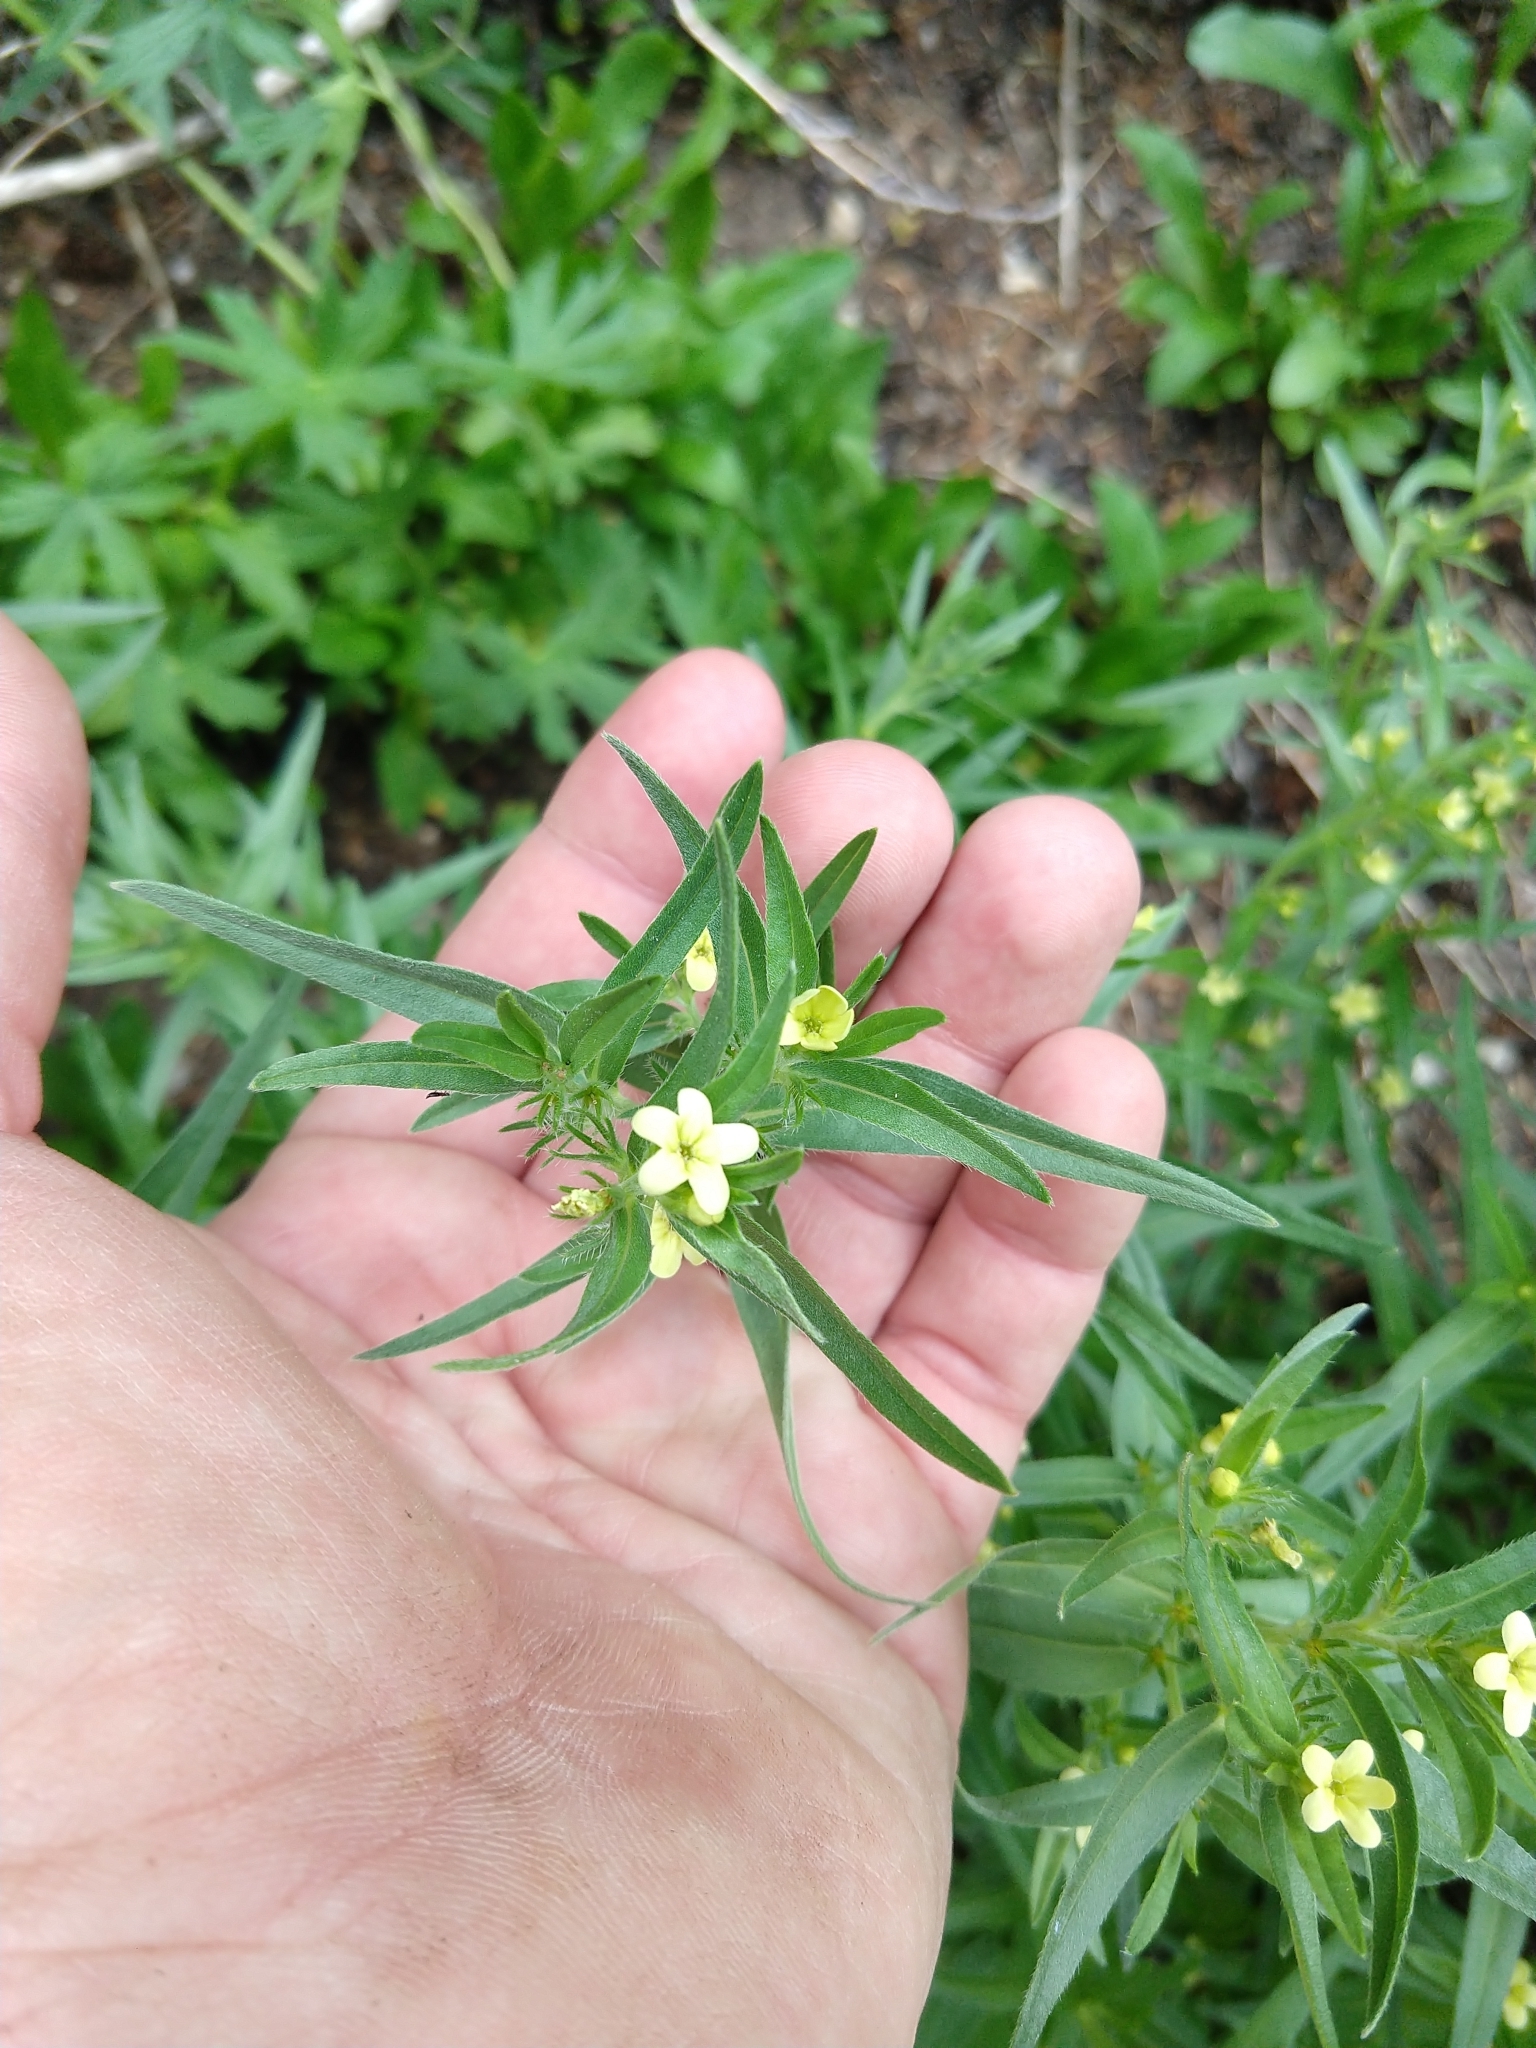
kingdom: Plantae
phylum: Tracheophyta
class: Magnoliopsida
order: Boraginales
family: Boraginaceae
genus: Lithospermum
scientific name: Lithospermum ruderale
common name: Western gromwell
